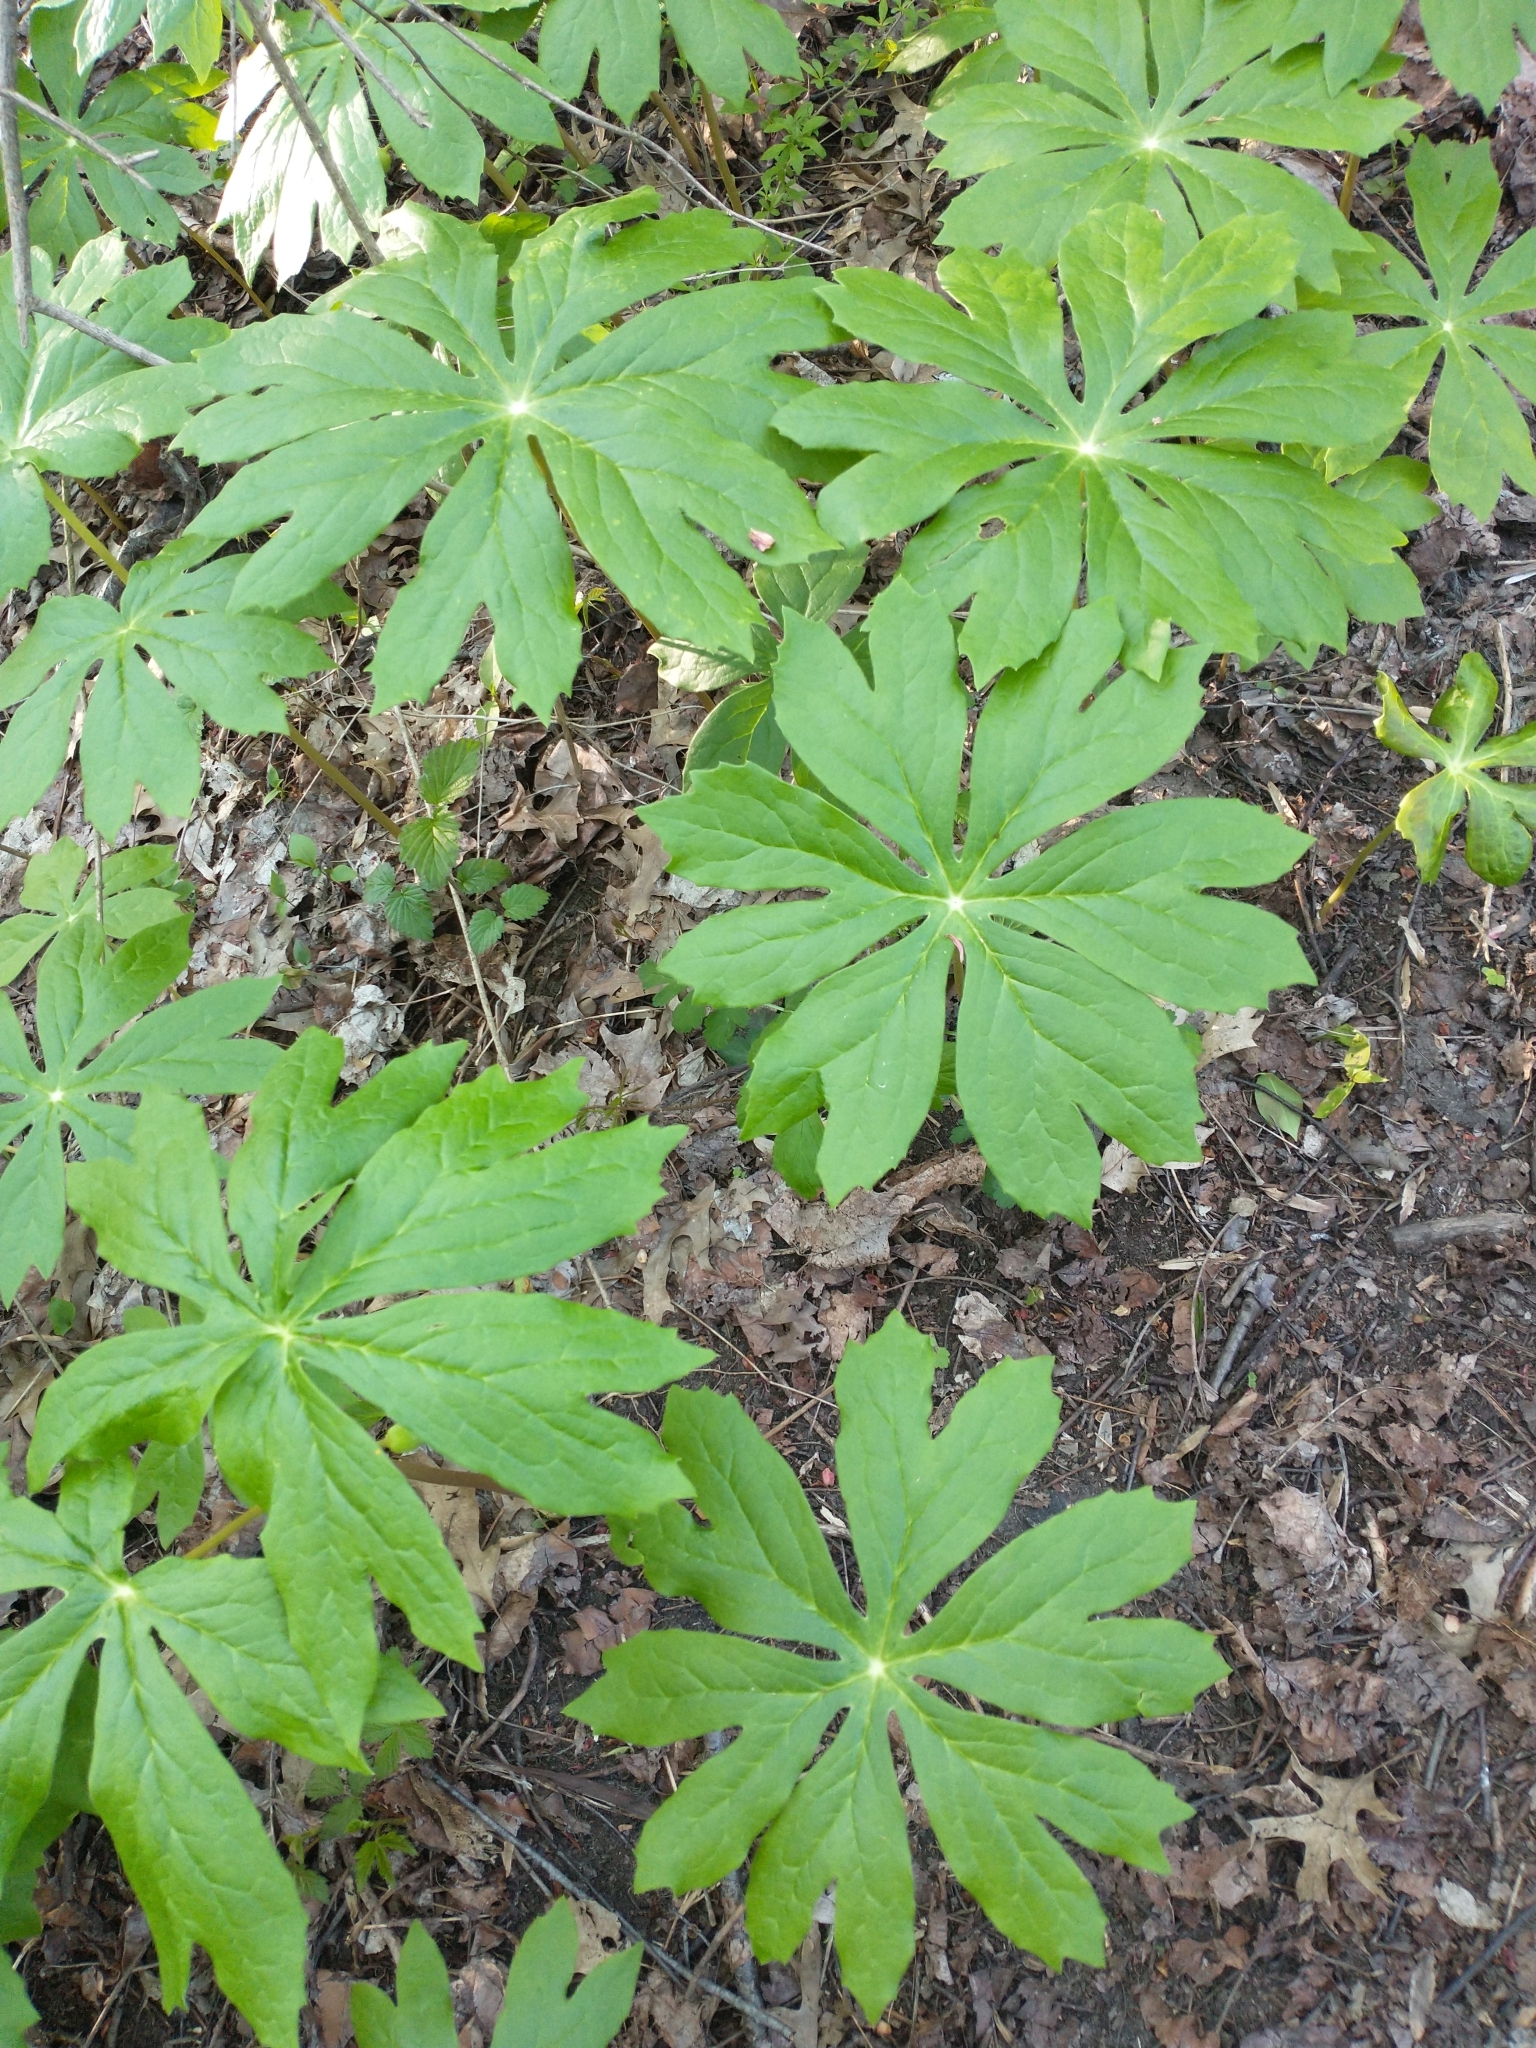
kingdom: Plantae
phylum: Tracheophyta
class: Magnoliopsida
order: Ranunculales
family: Berberidaceae
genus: Podophyllum
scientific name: Podophyllum peltatum
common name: Wild mandrake
